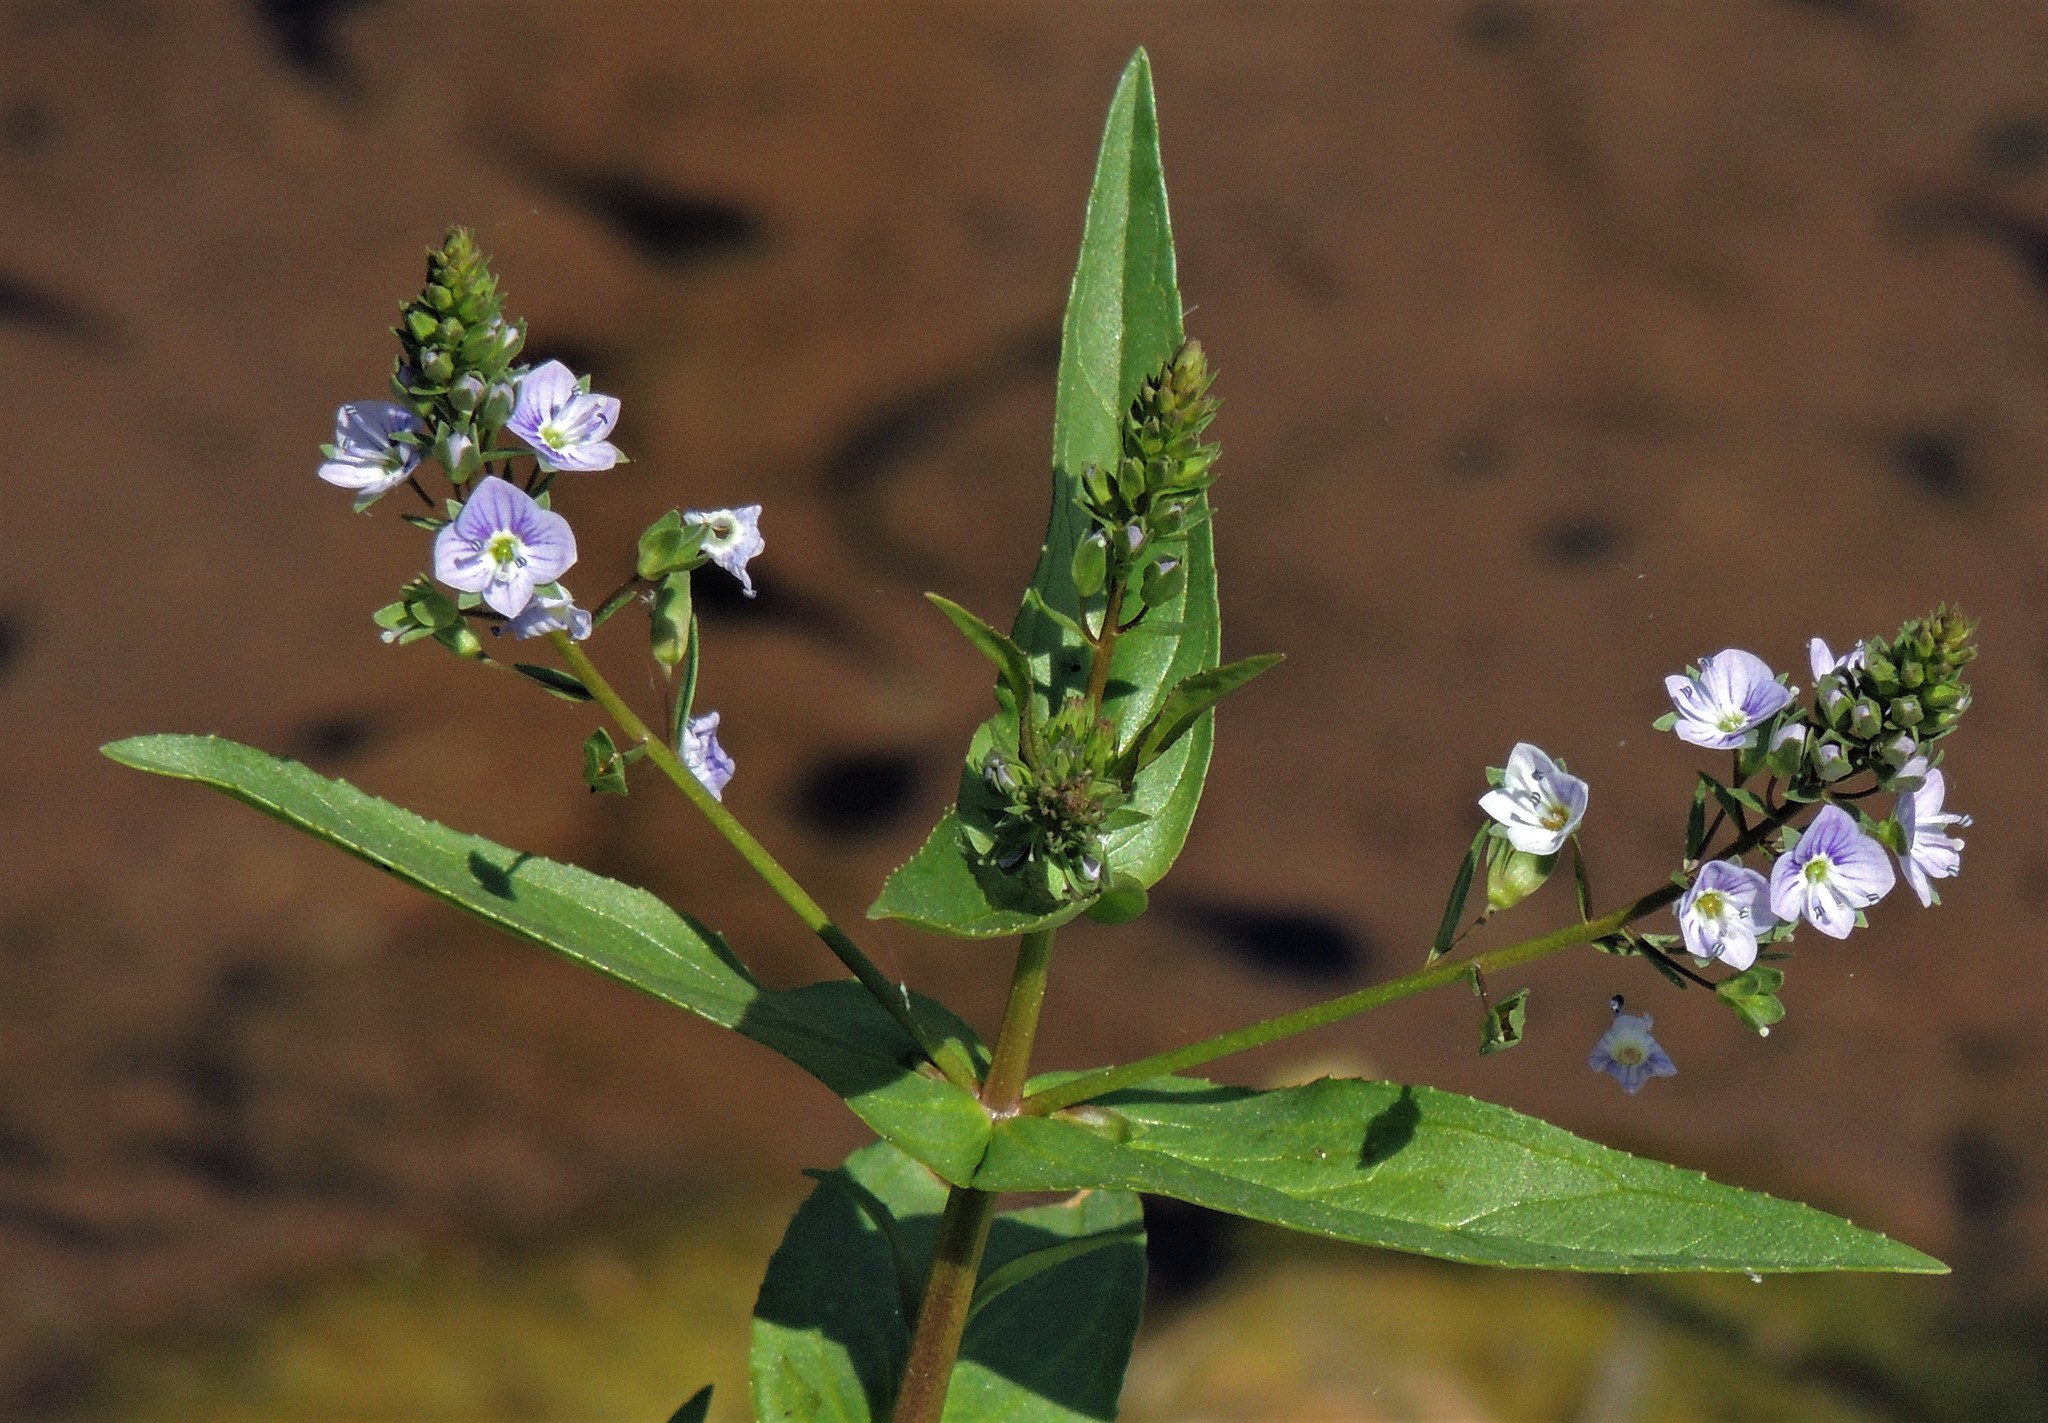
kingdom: Plantae
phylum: Tracheophyta
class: Magnoliopsida
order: Lamiales
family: Plantaginaceae
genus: Veronica
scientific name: Veronica anagallis-aquatica
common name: Water speedwell
